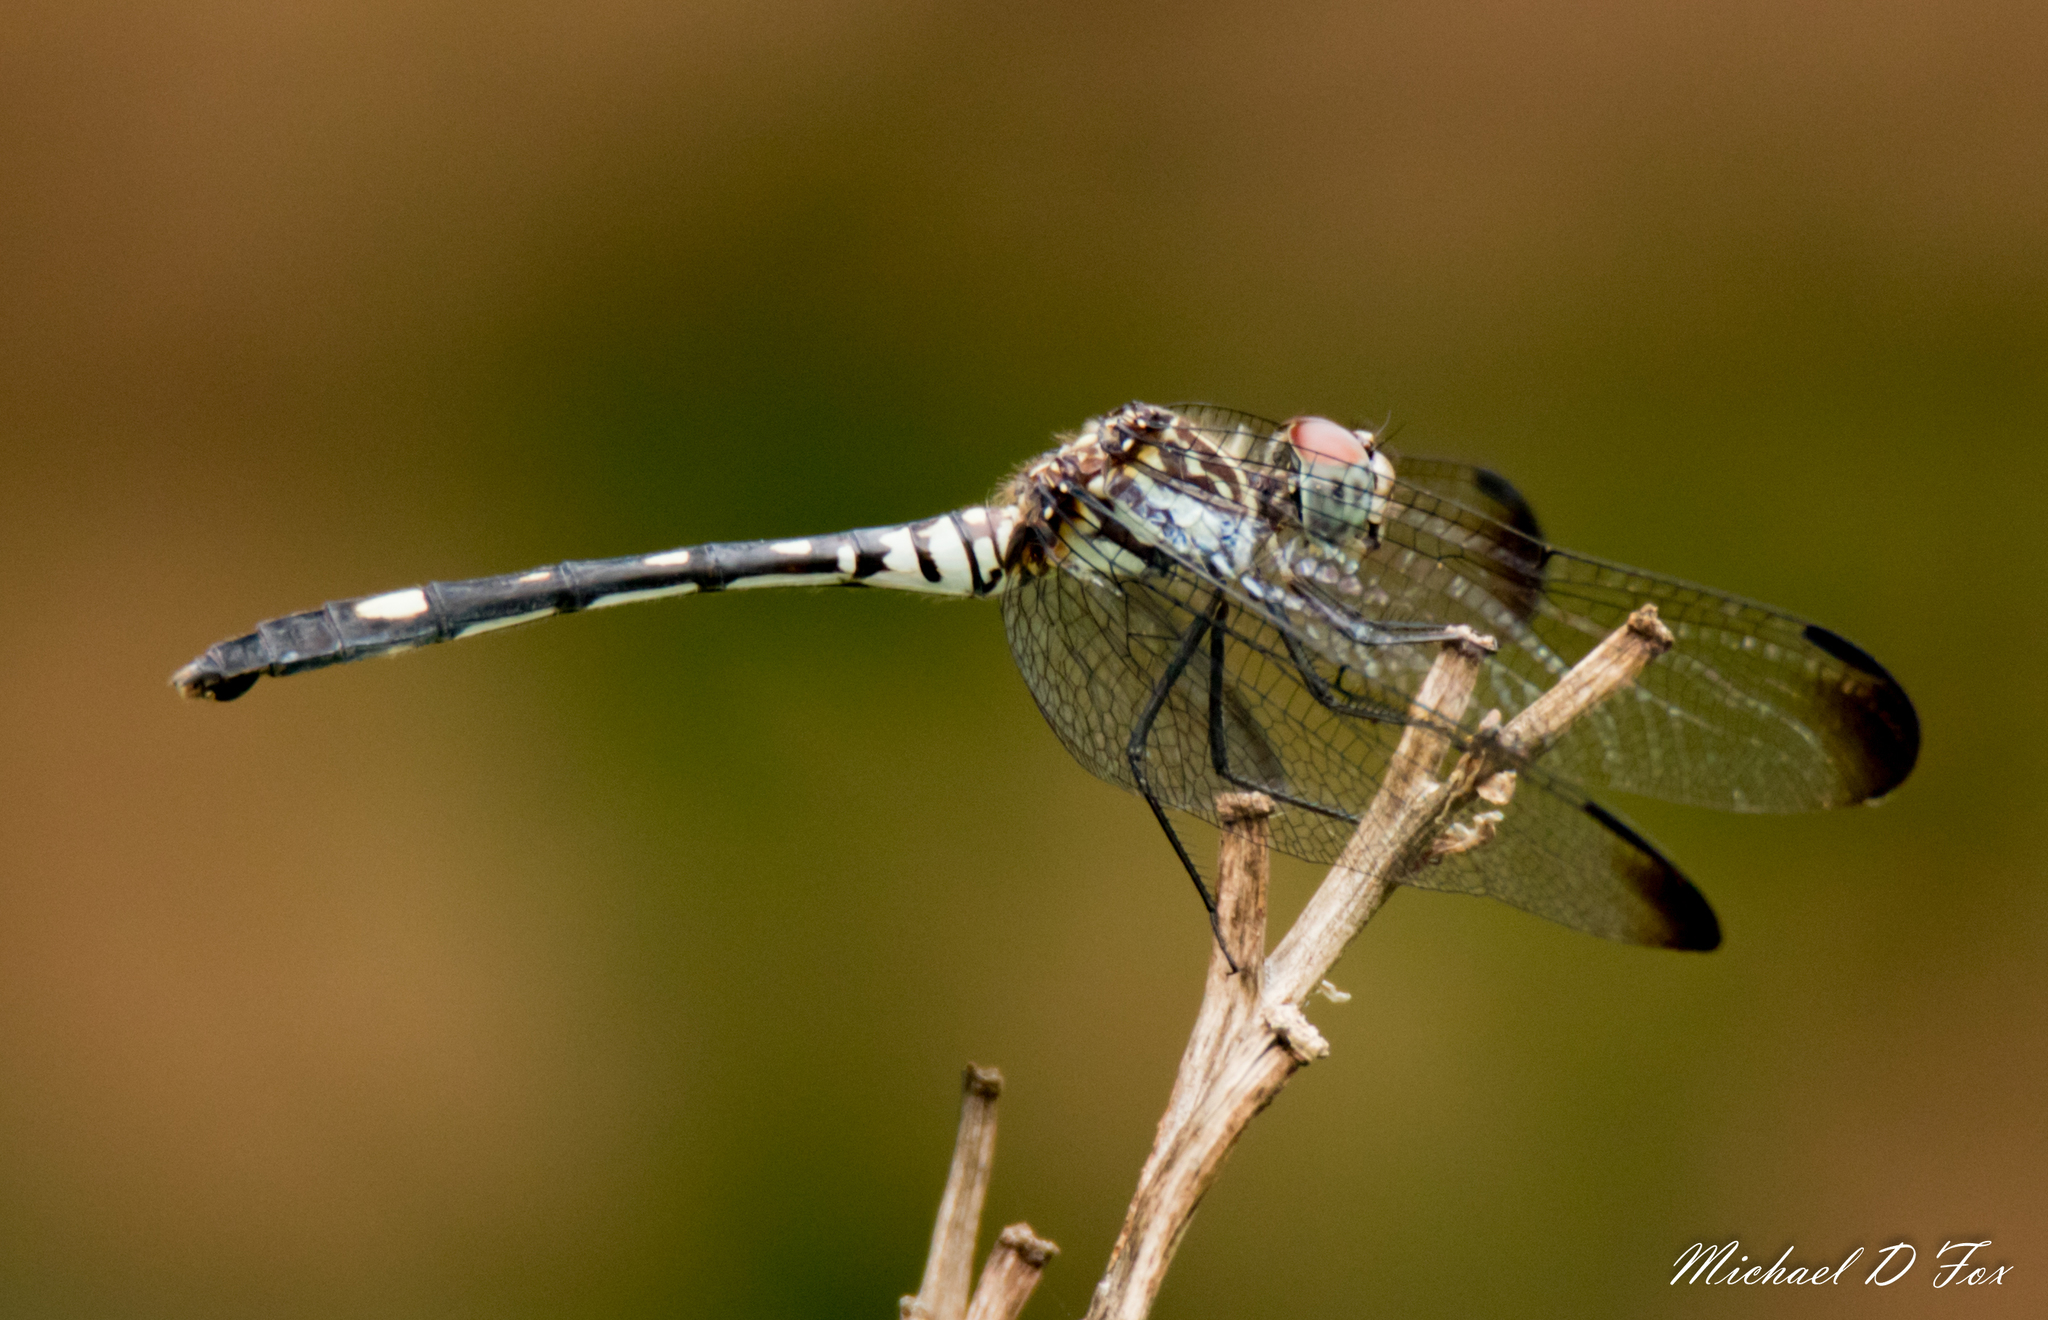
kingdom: Animalia
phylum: Arthropoda
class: Insecta
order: Odonata
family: Libellulidae
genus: Dythemis
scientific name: Dythemis velox
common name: Swift setwing
